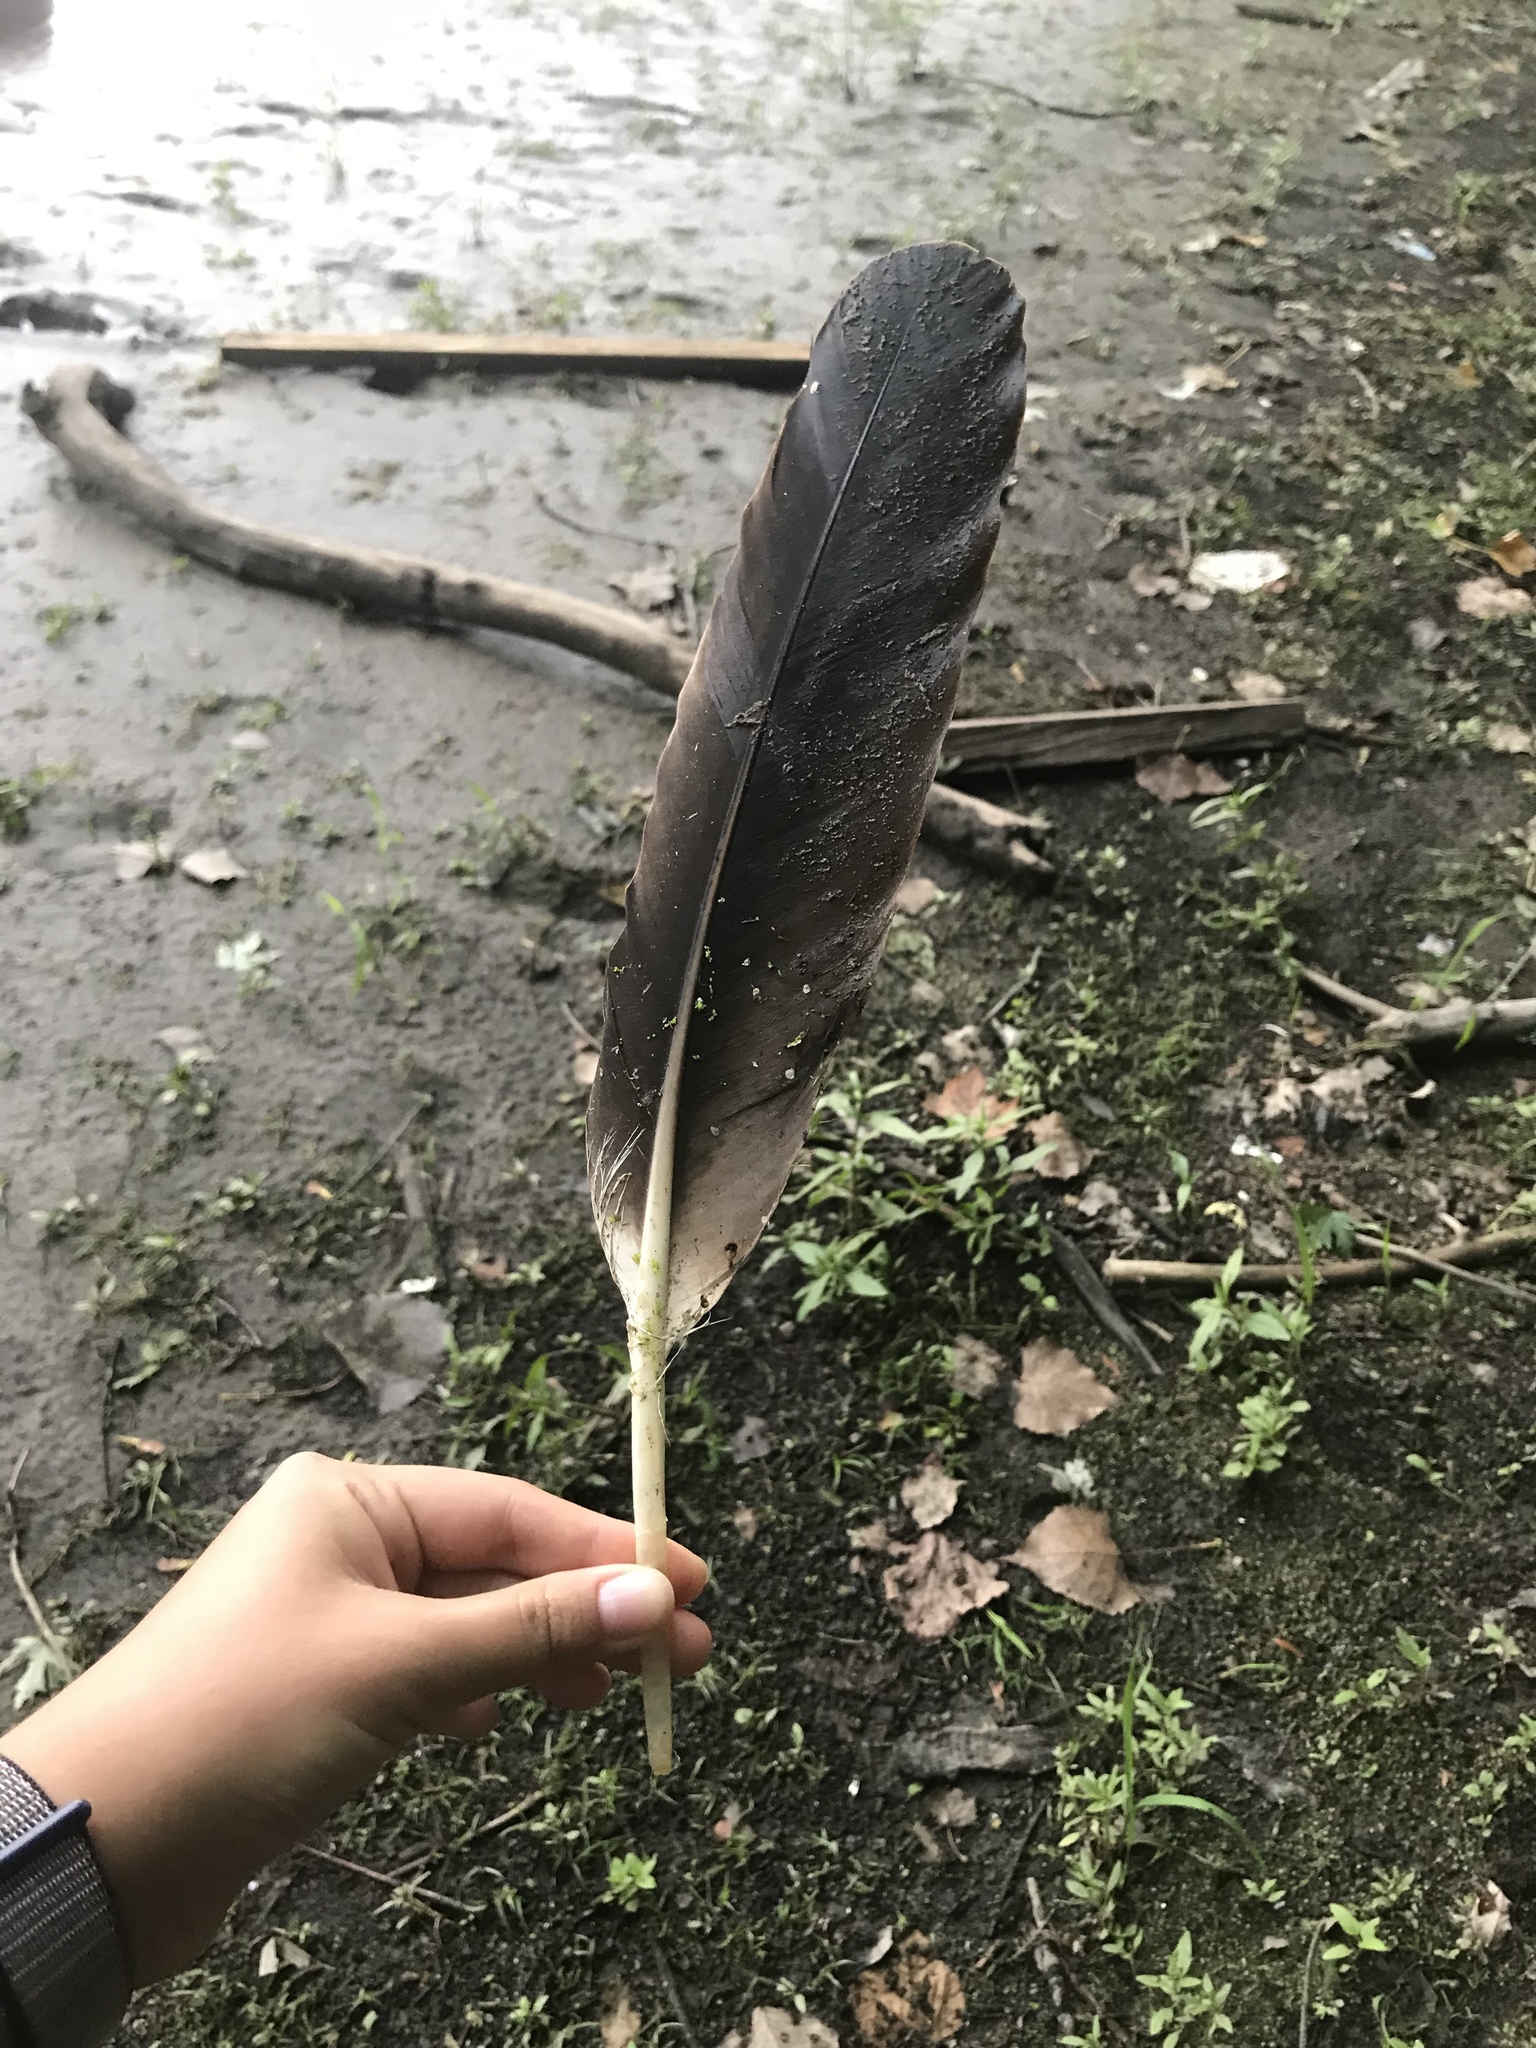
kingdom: Animalia
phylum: Chordata
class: Aves
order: Accipitriformes
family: Accipitridae
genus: Haliaeetus
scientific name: Haliaeetus leucocephalus
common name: Bald eagle
